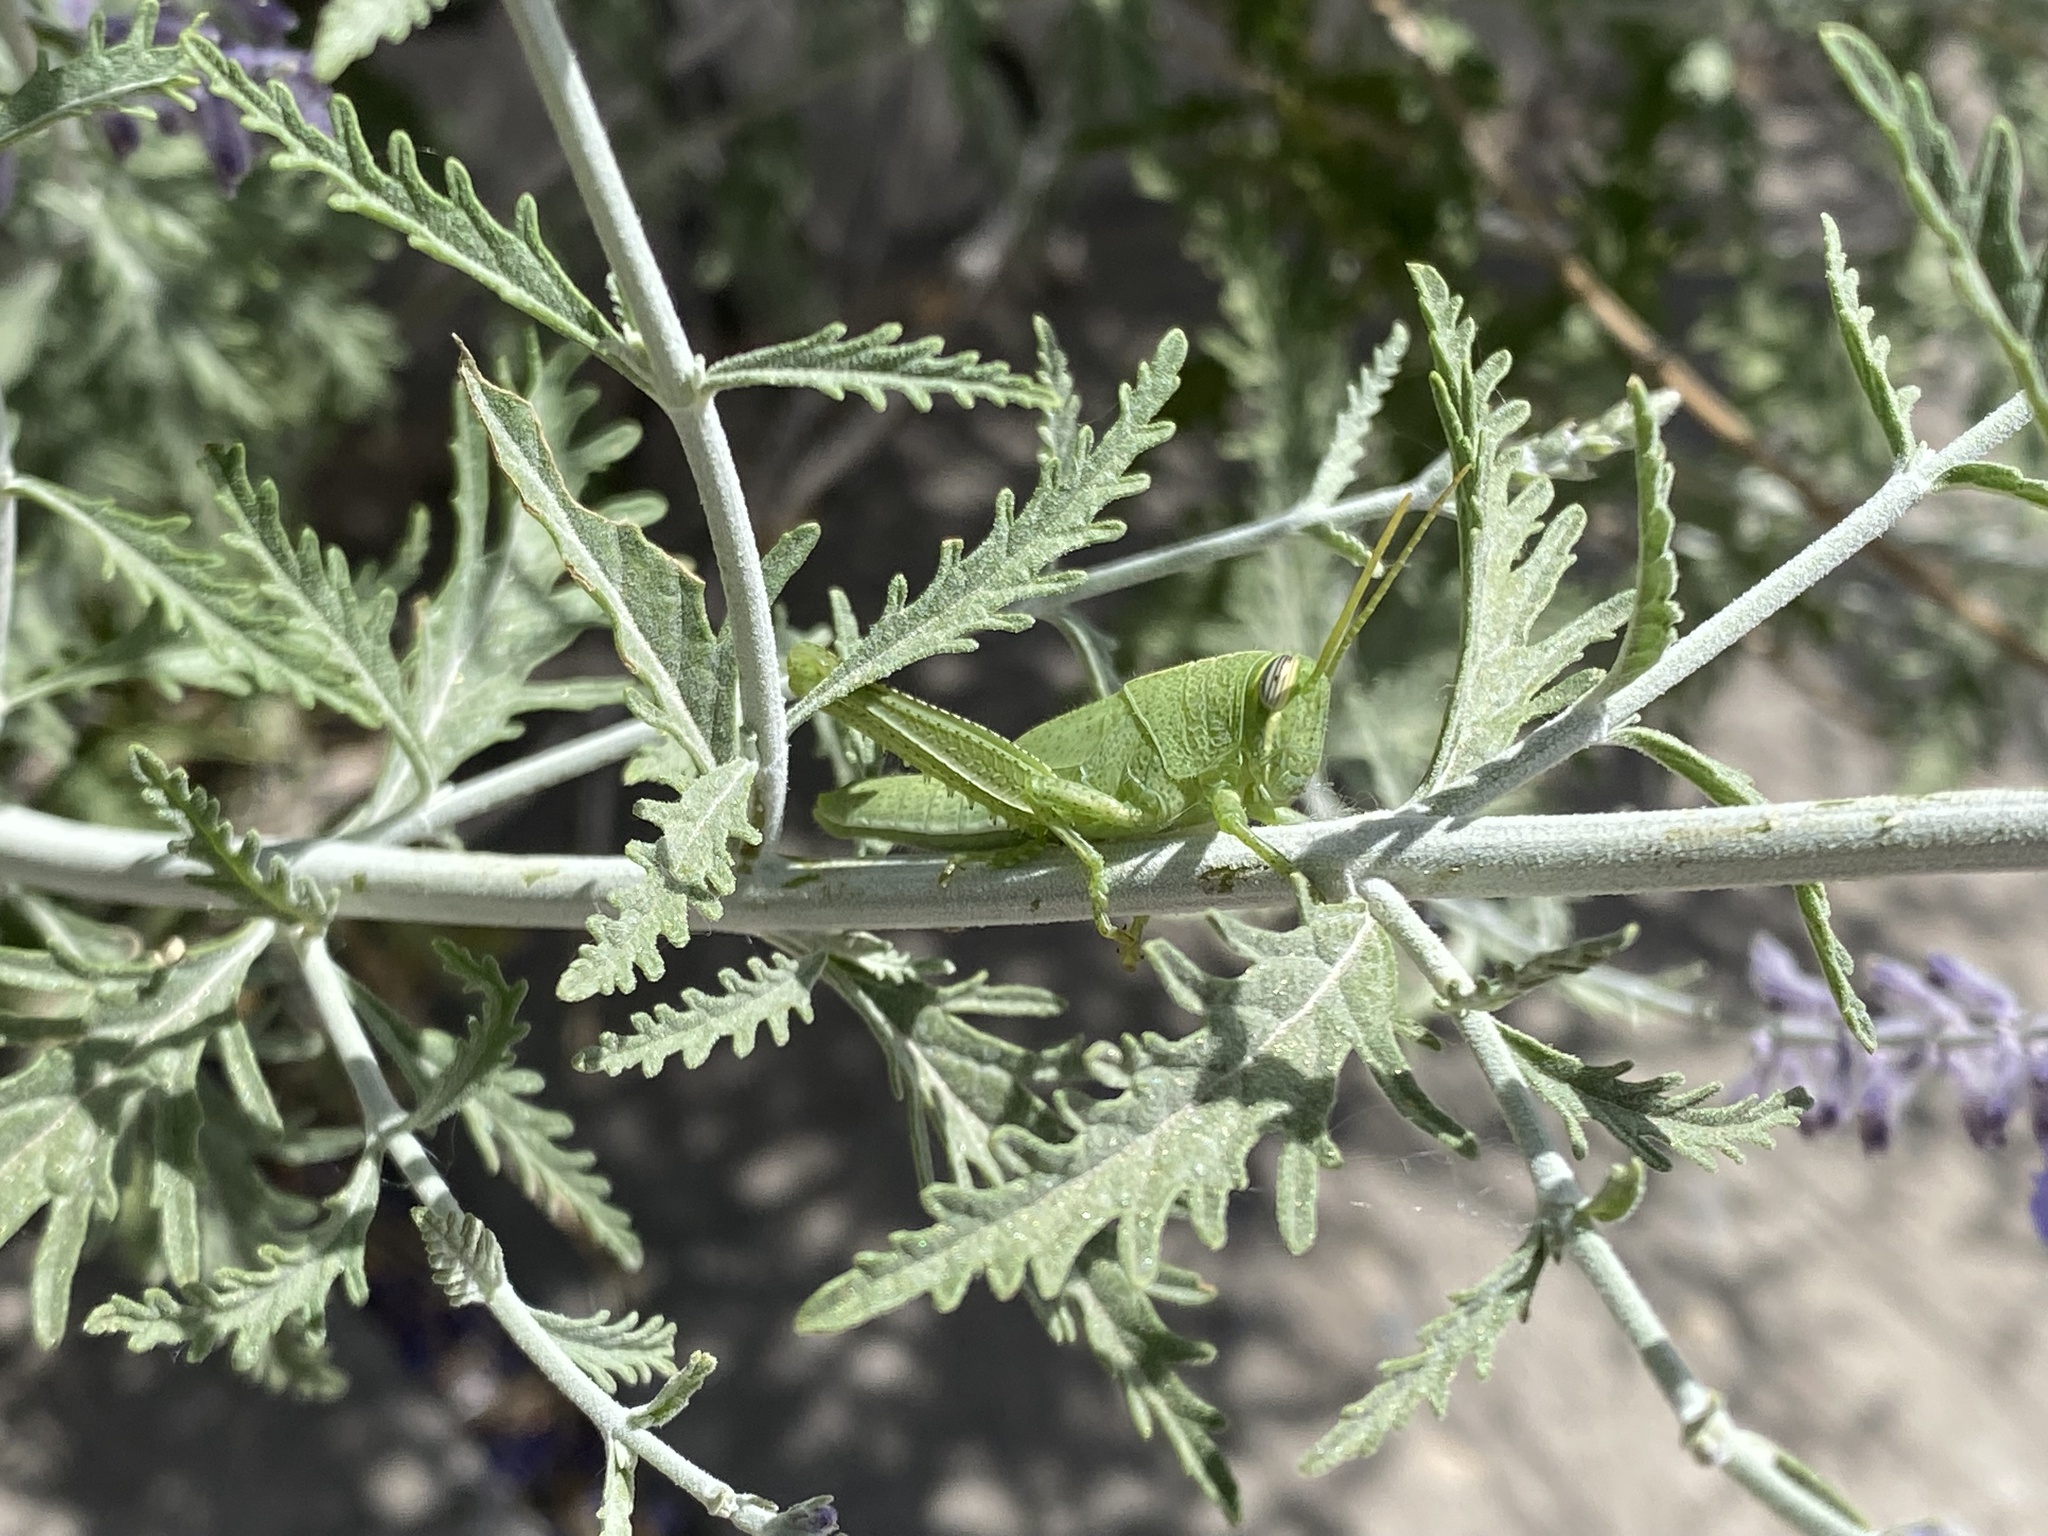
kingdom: Animalia
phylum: Arthropoda
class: Insecta
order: Orthoptera
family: Acrididae
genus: Schistocerca
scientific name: Schistocerca shoshone
